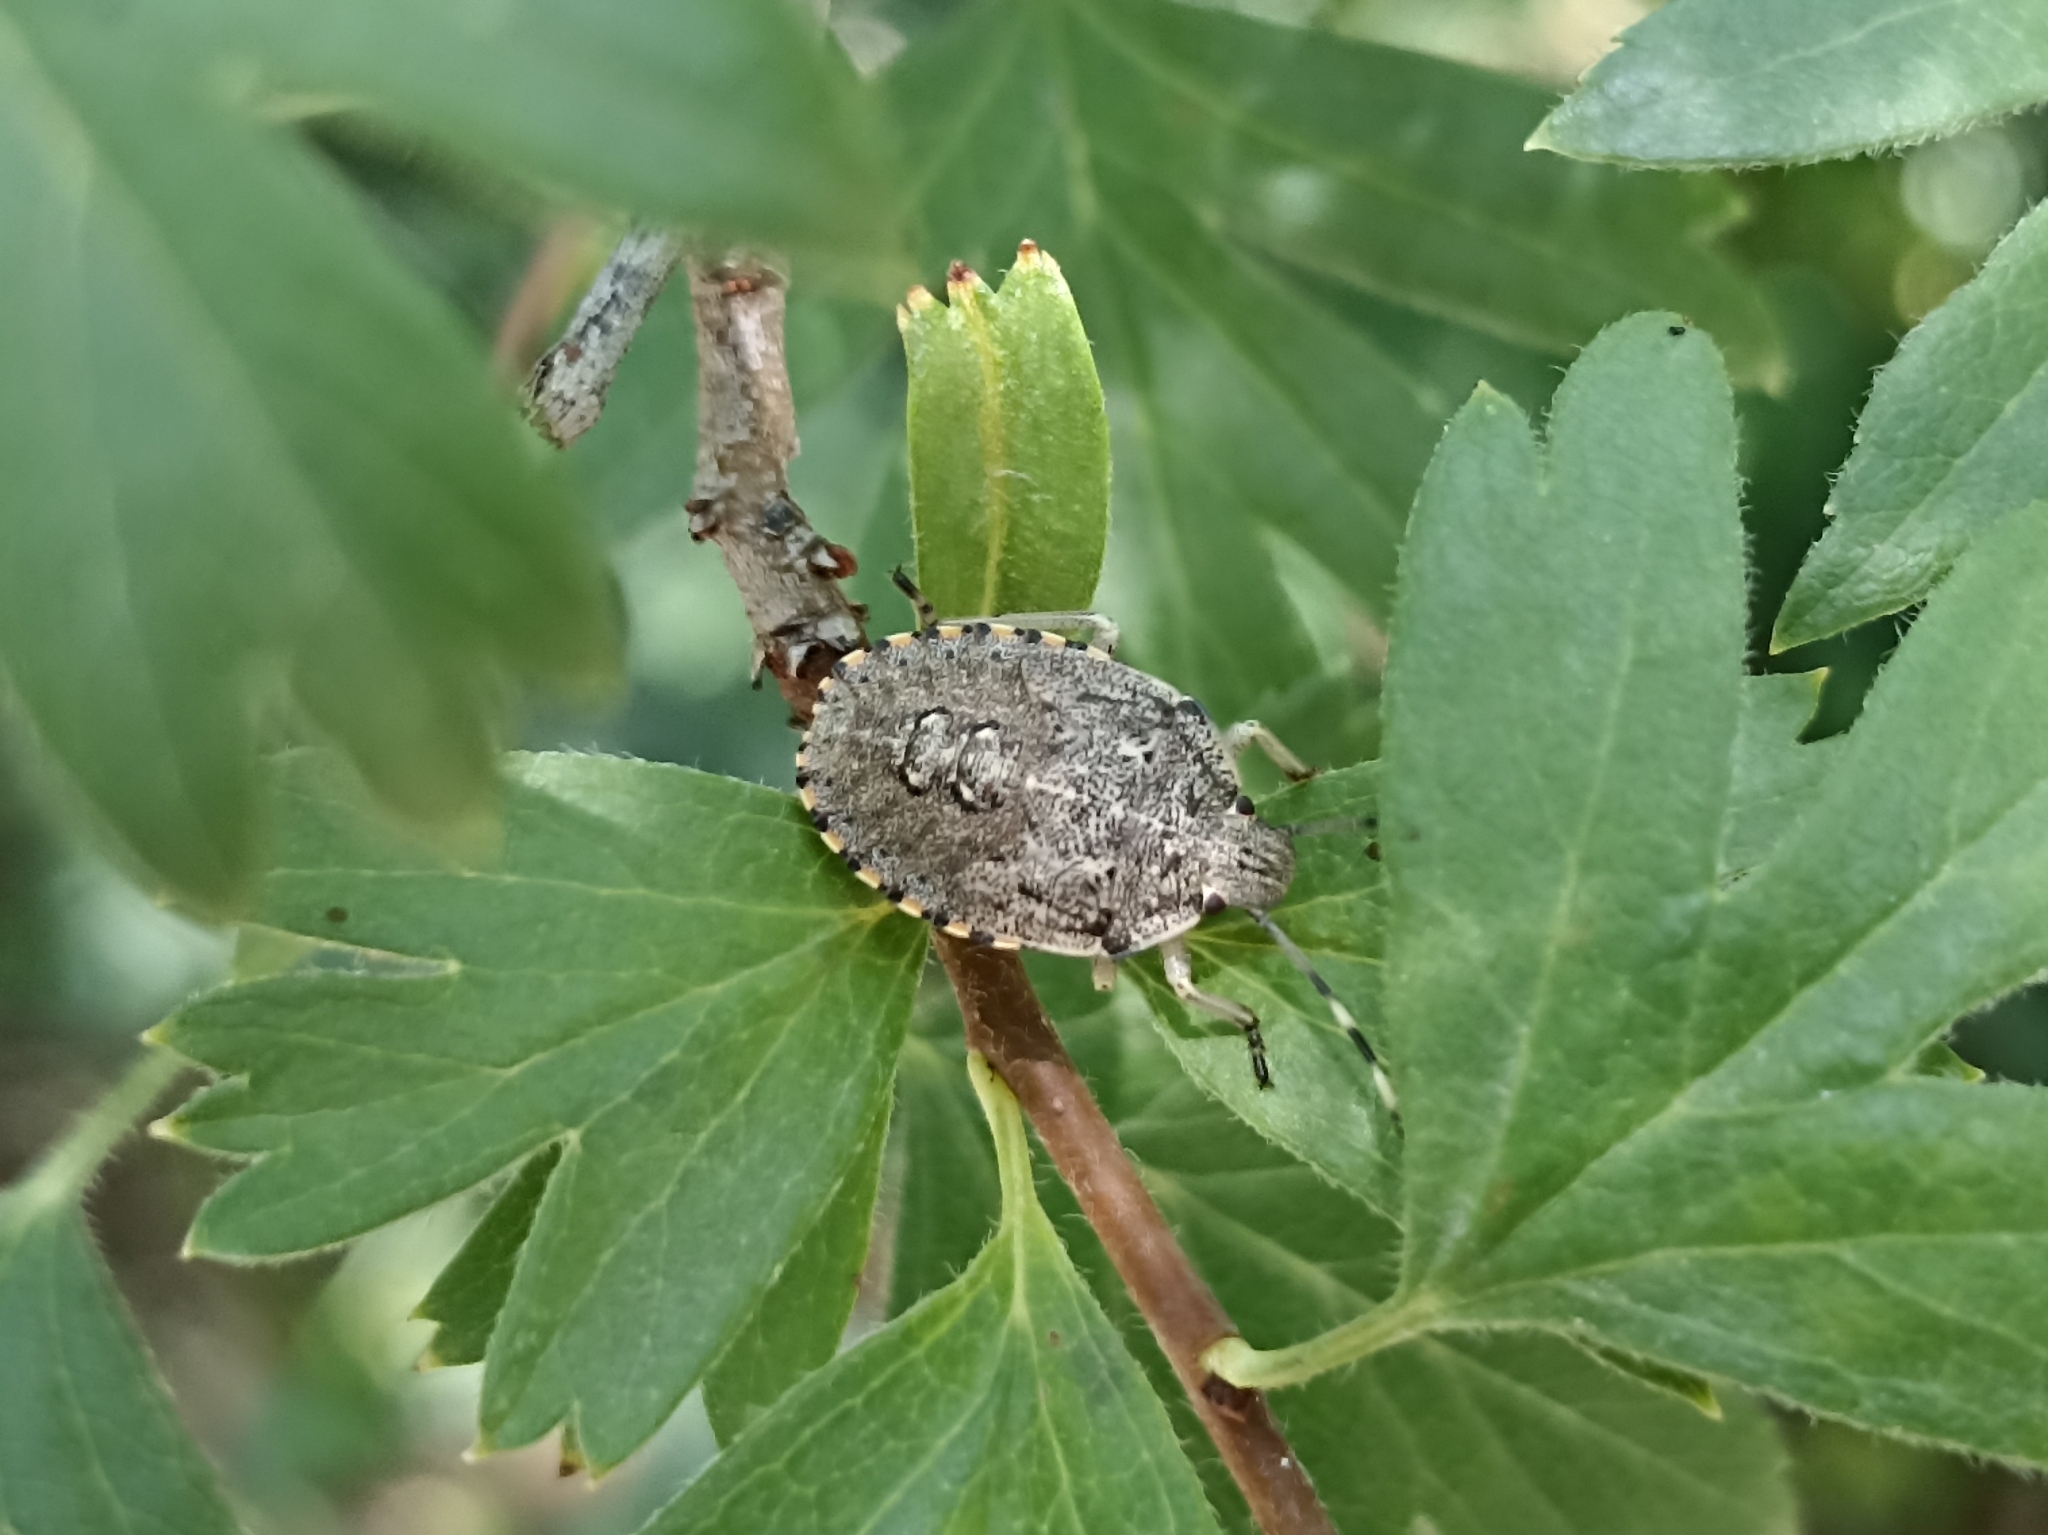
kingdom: Animalia
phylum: Arthropoda
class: Insecta
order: Hemiptera
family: Pentatomidae
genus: Rhaphigaster
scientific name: Rhaphigaster nebulosa
